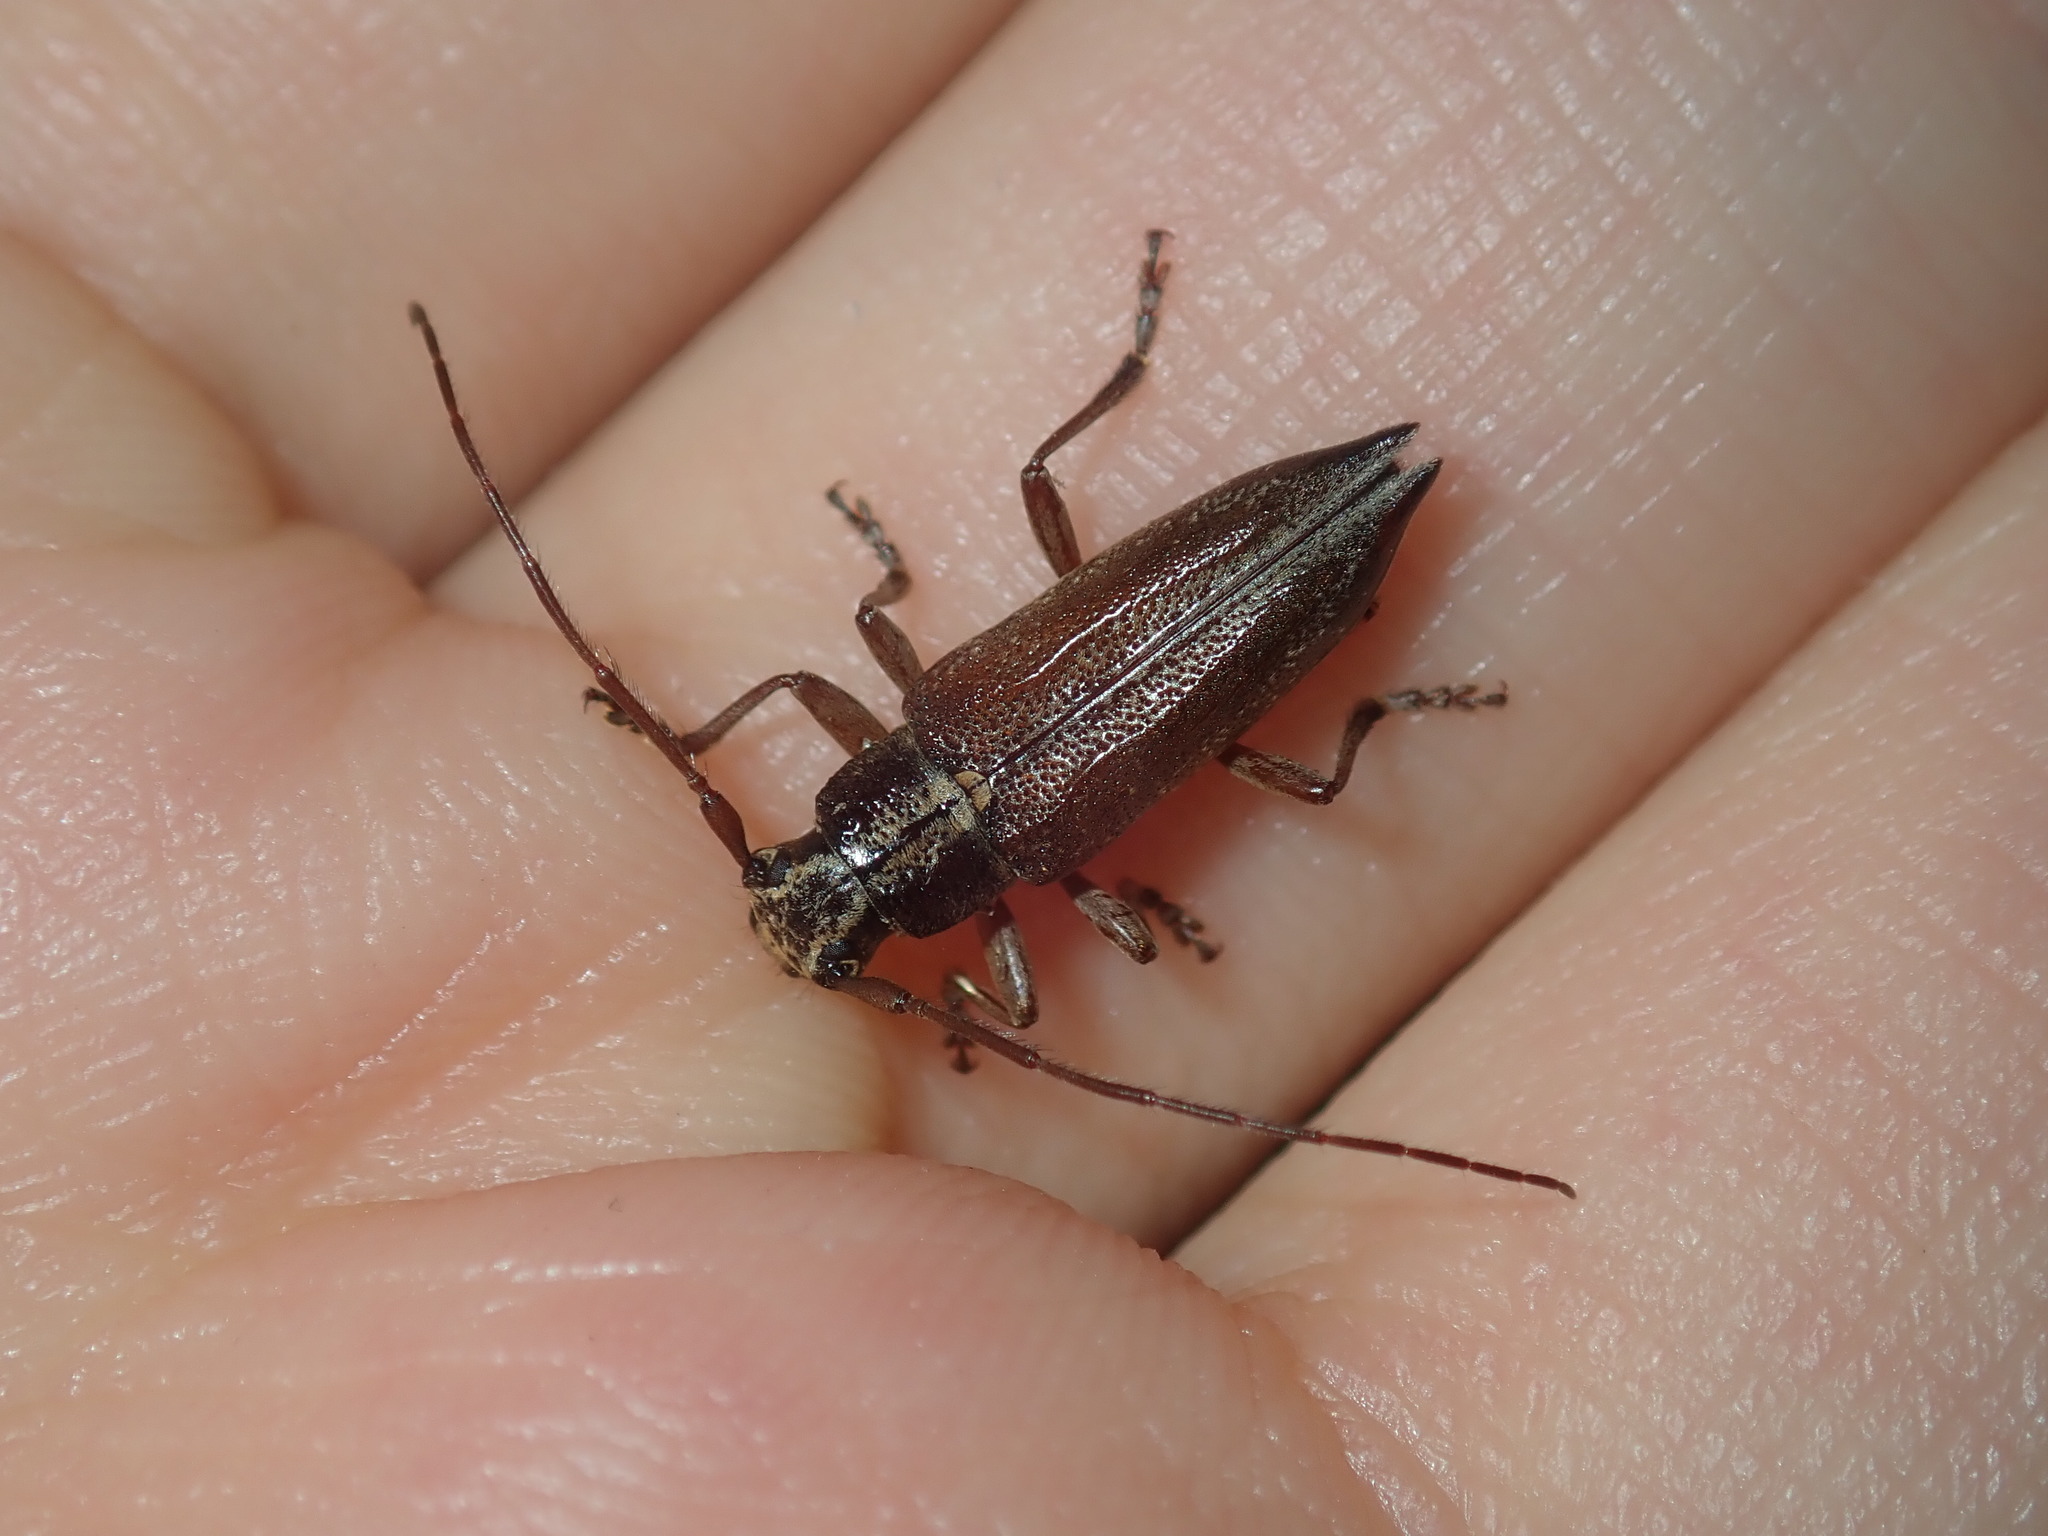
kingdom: Animalia
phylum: Arthropoda
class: Insecta
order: Coleoptera
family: Cerambycidae
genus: Temnosternus
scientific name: Temnosternus planiusculus
